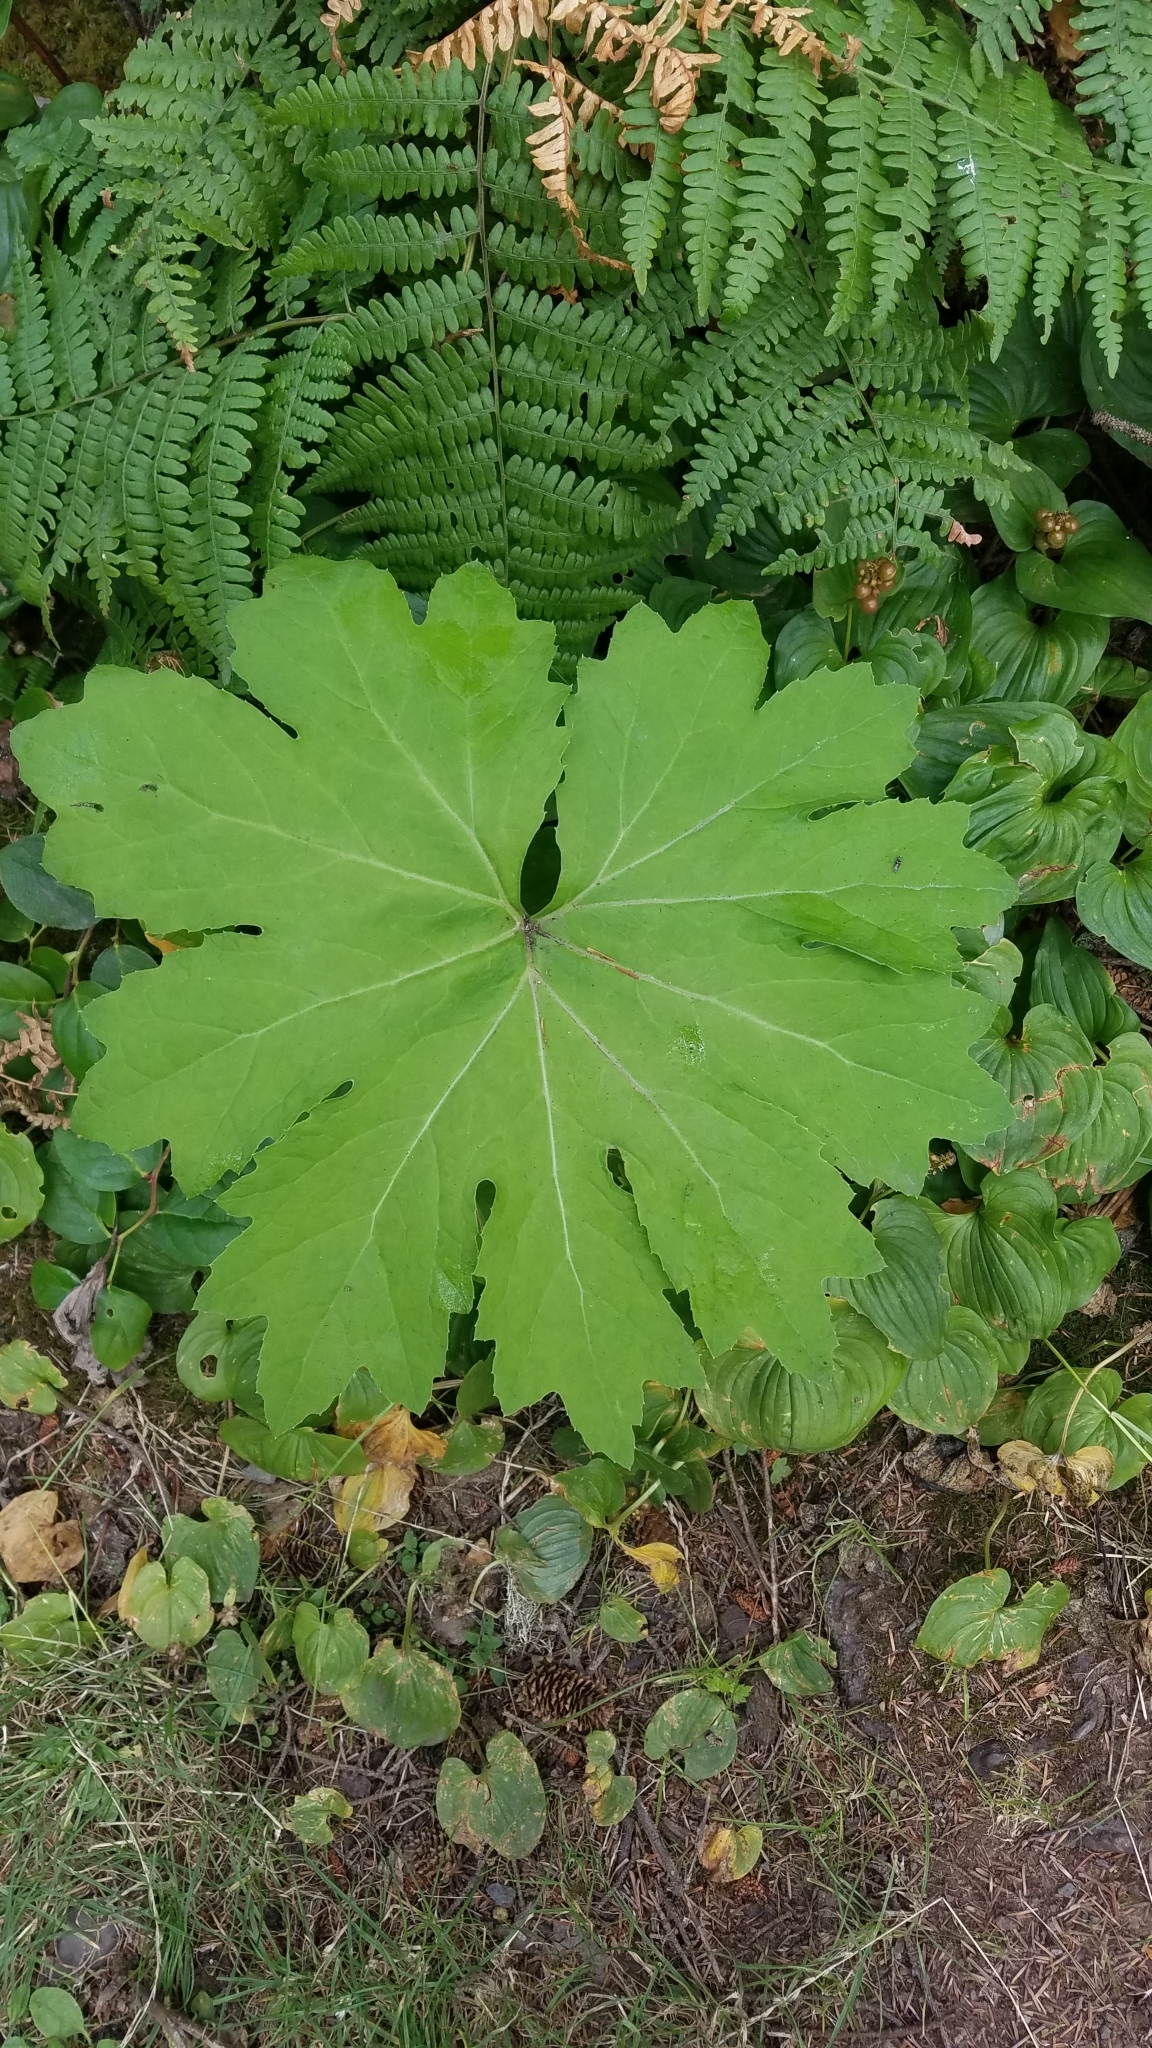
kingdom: Plantae
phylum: Tracheophyta
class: Magnoliopsida
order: Asterales
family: Asteraceae
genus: Petasites
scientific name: Petasites frigidus
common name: Arctic butterbur
